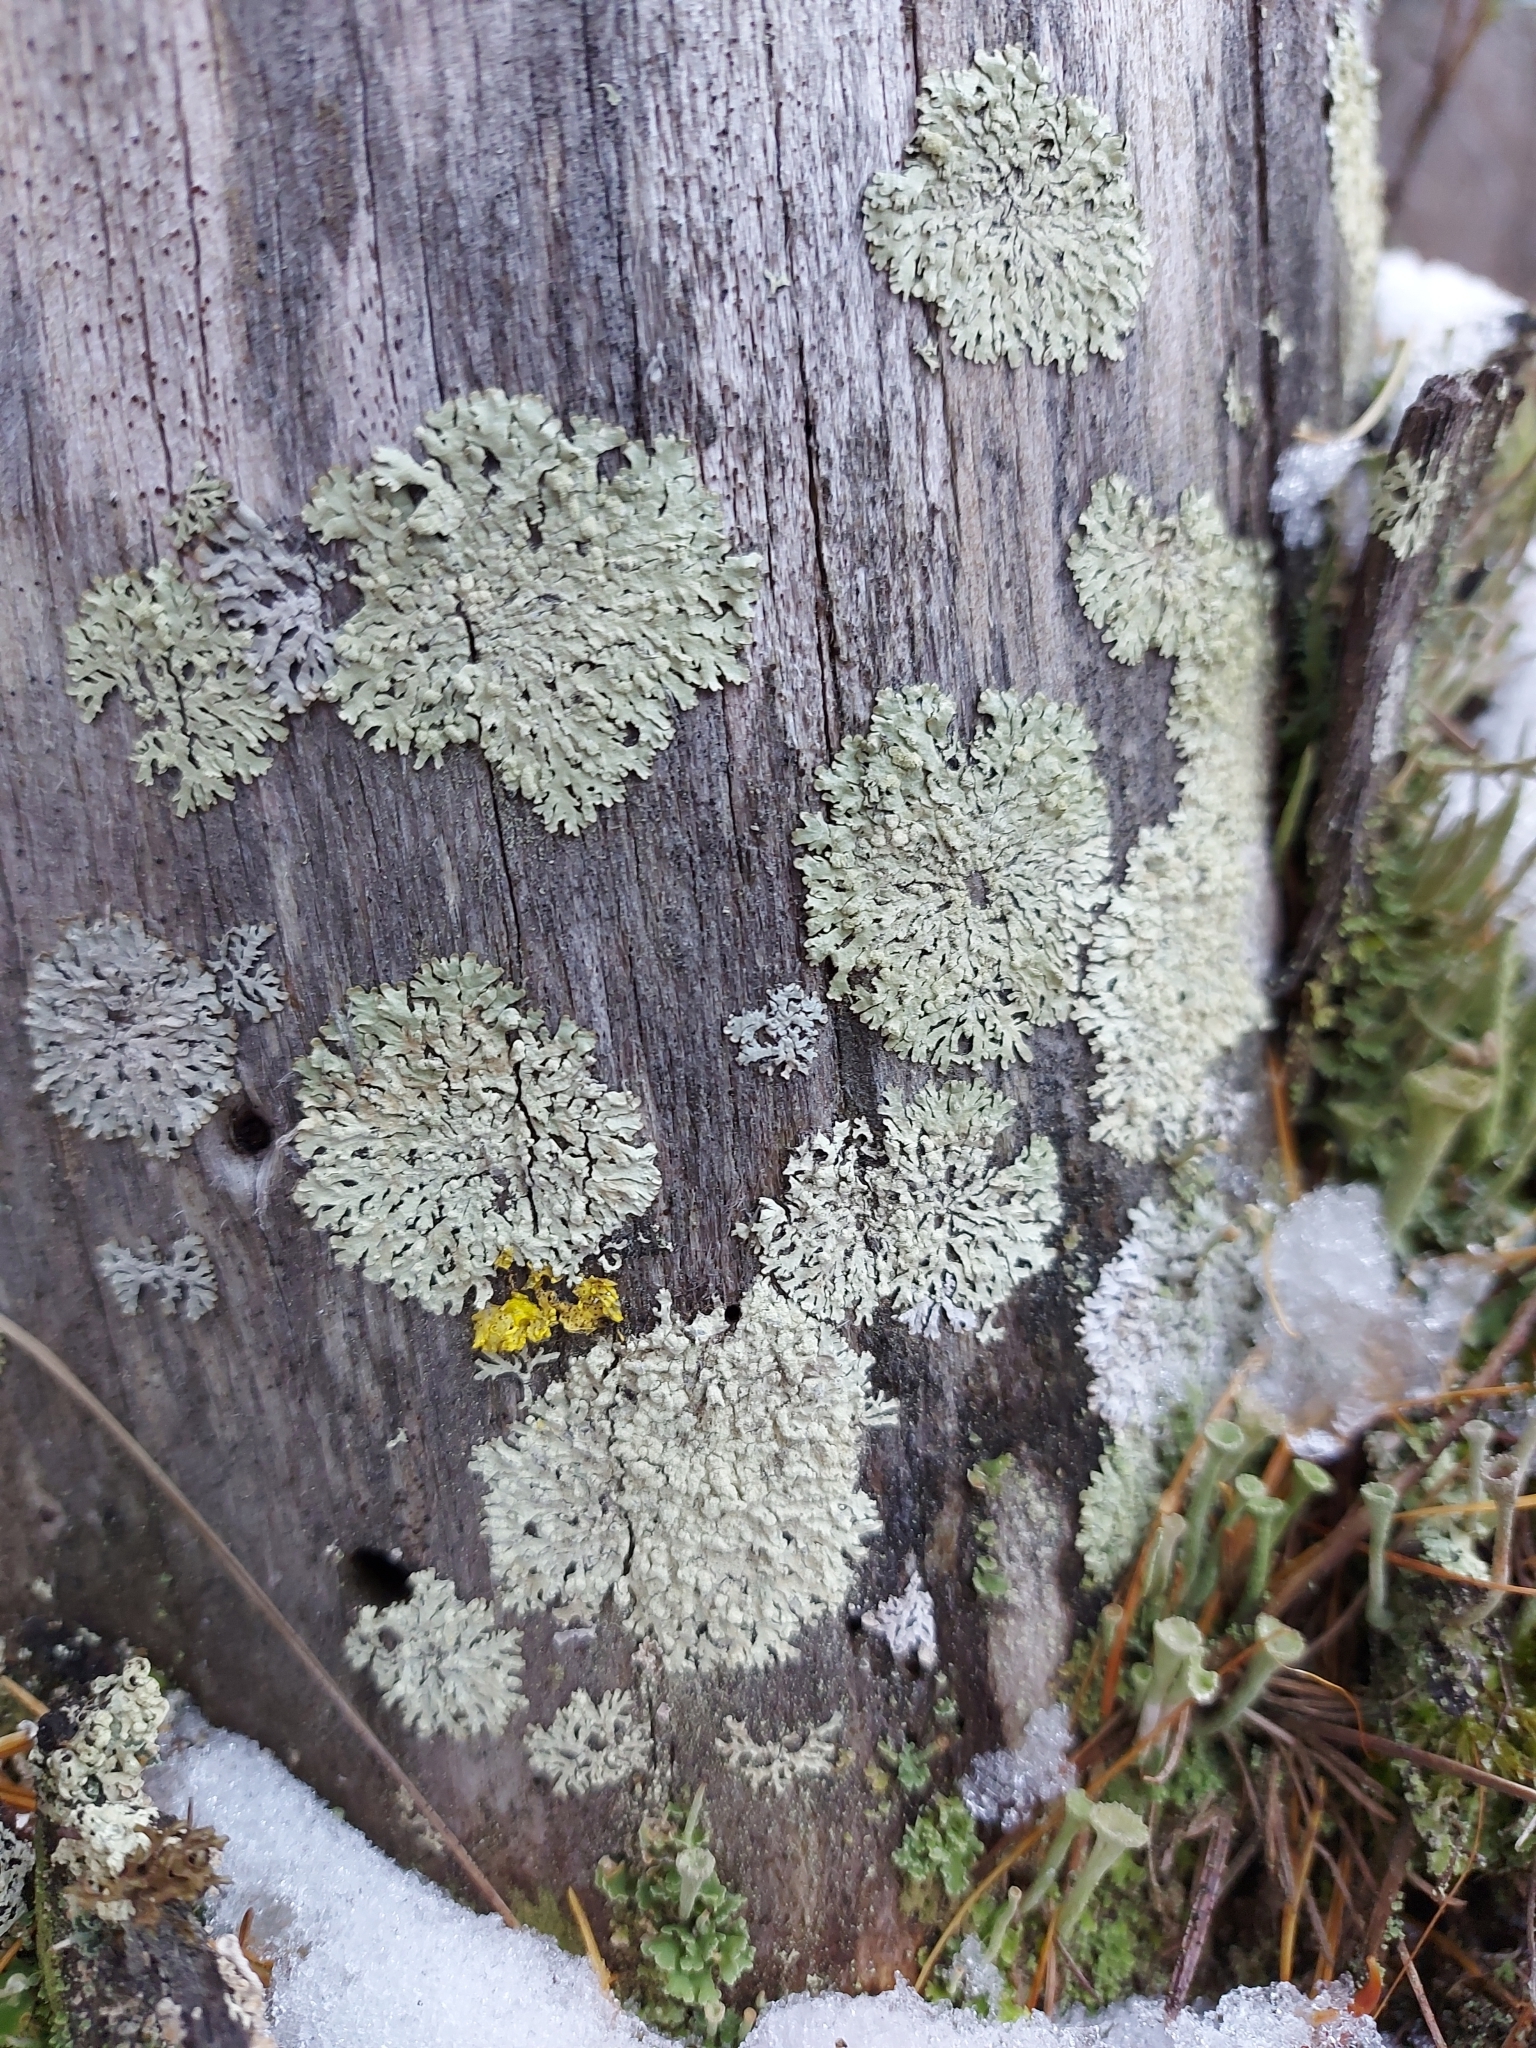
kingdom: Fungi
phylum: Ascomycota
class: Lecanoromycetes
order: Lecanorales
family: Parmeliaceae
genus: Parmeliopsis
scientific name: Parmeliopsis hyperopta
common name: Grey starburst lichen
